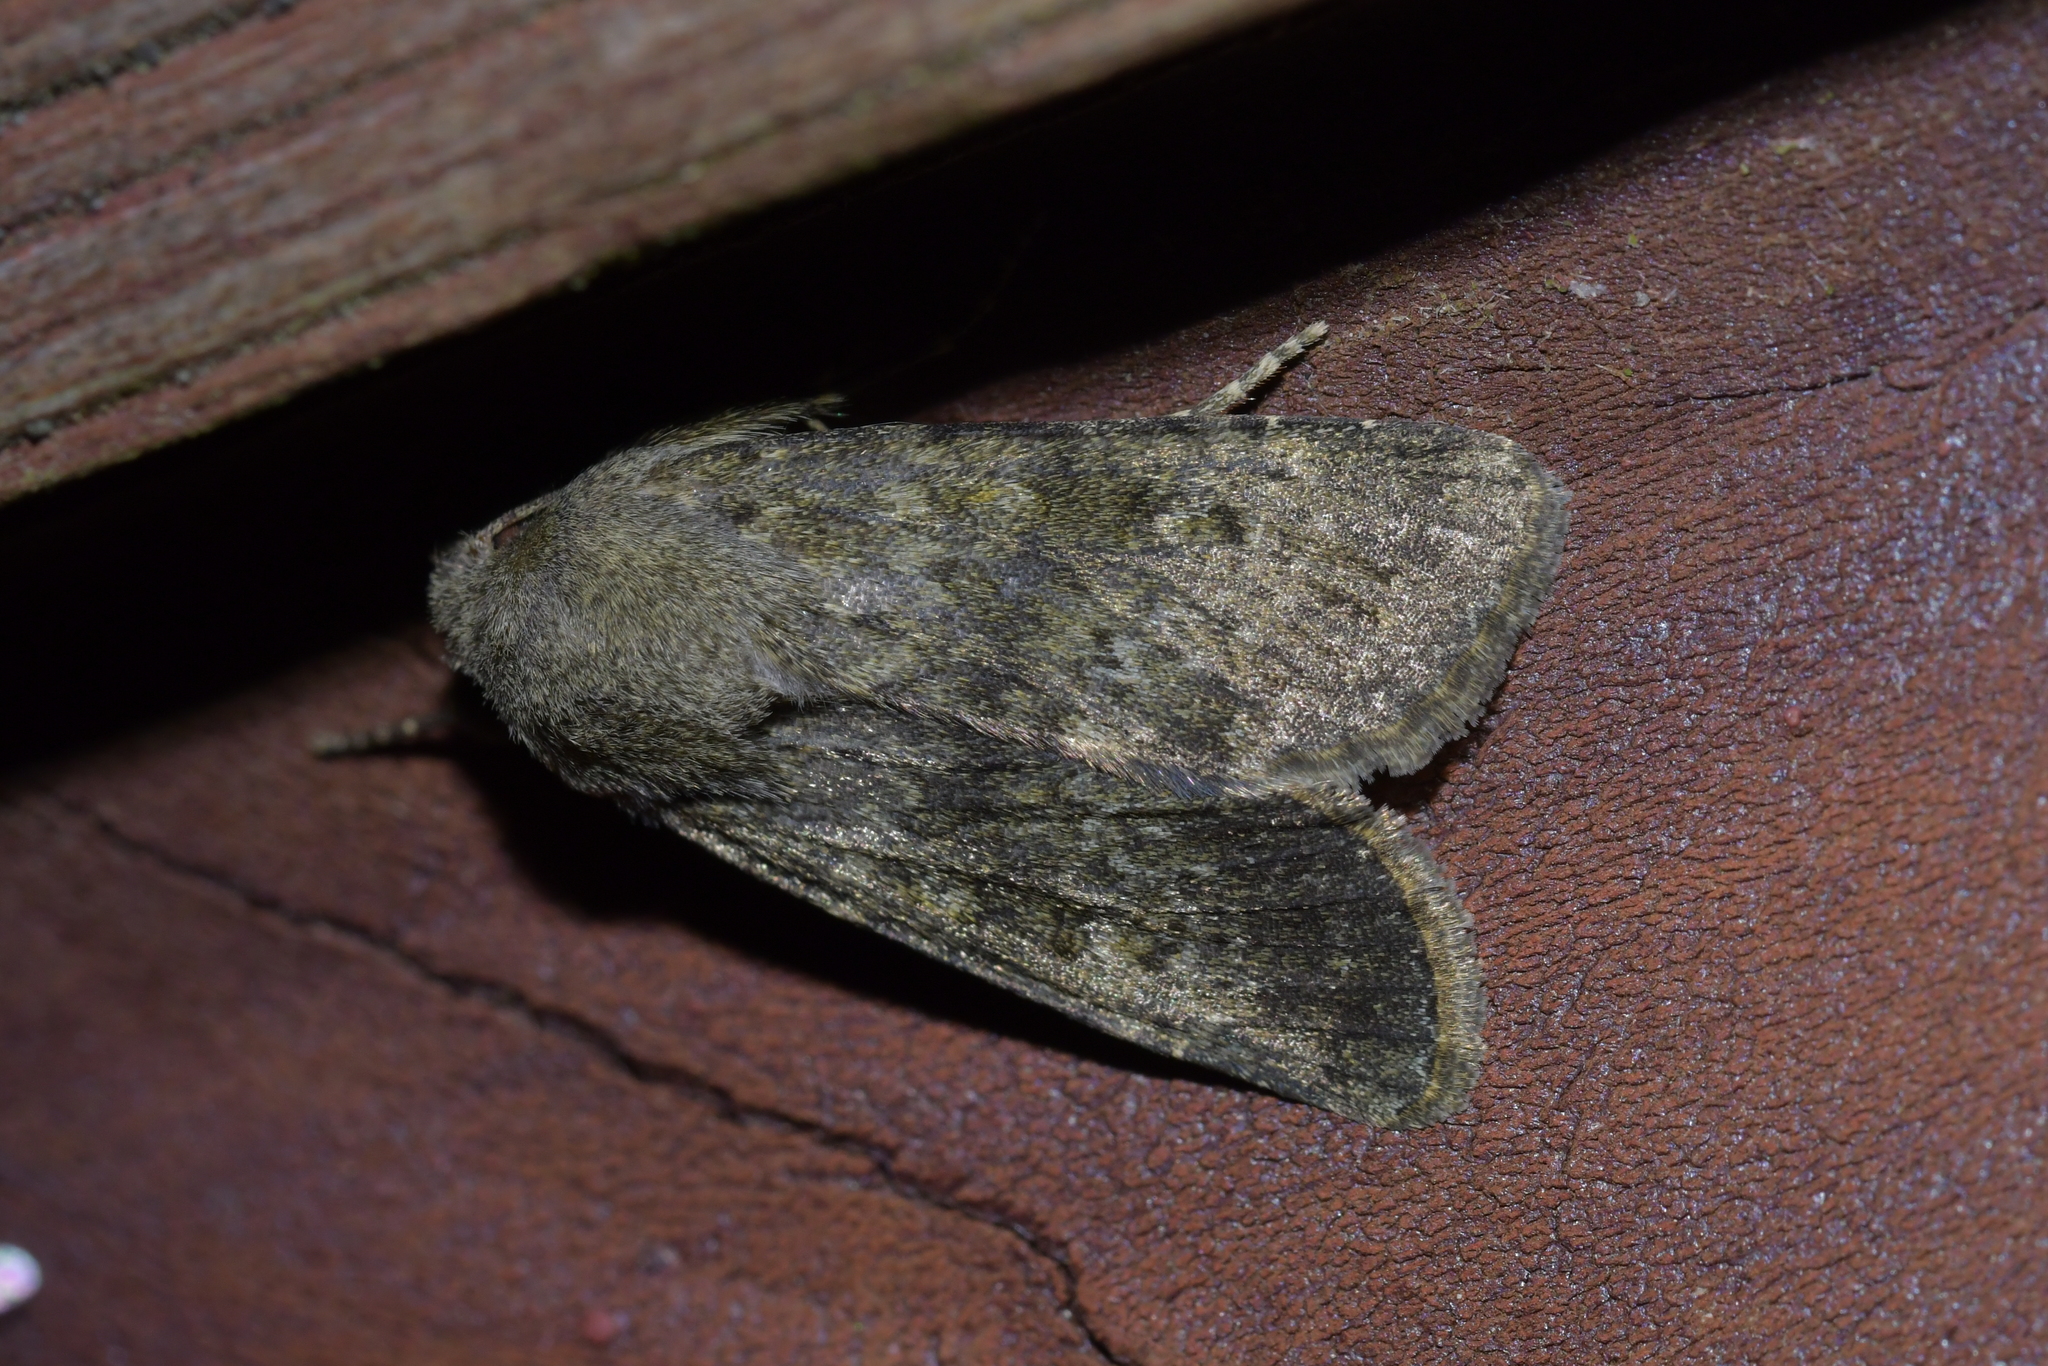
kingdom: Animalia
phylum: Arthropoda
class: Insecta
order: Lepidoptera
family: Noctuidae
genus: Ichneutica
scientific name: Ichneutica moderata
